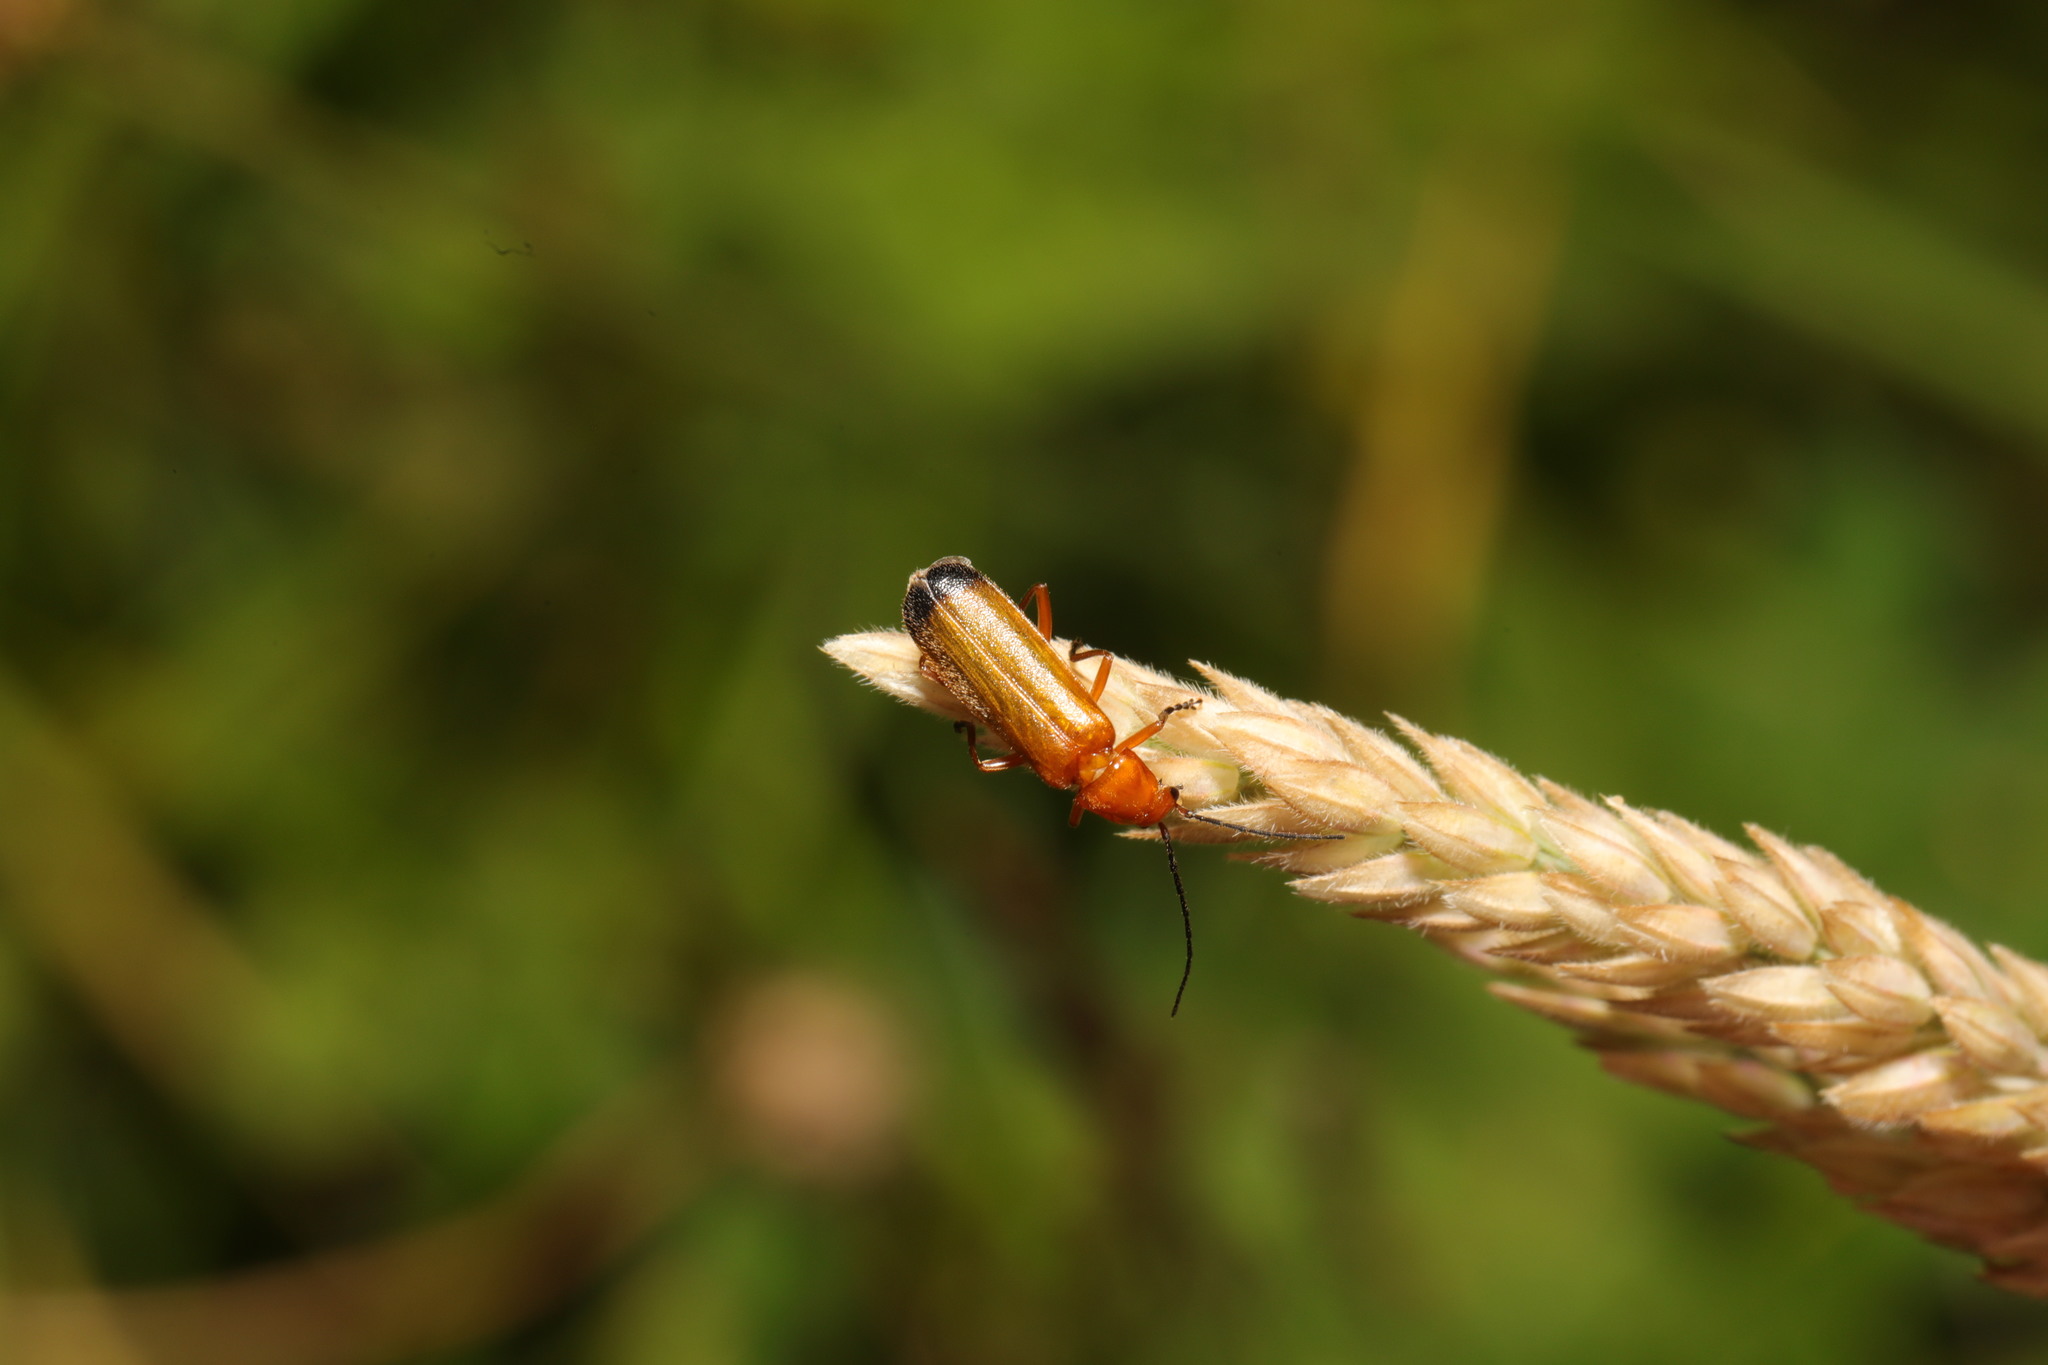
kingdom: Animalia
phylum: Arthropoda
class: Insecta
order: Coleoptera
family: Cantharidae
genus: Rhagonycha
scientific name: Rhagonycha fulva
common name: Common red soldier beetle
